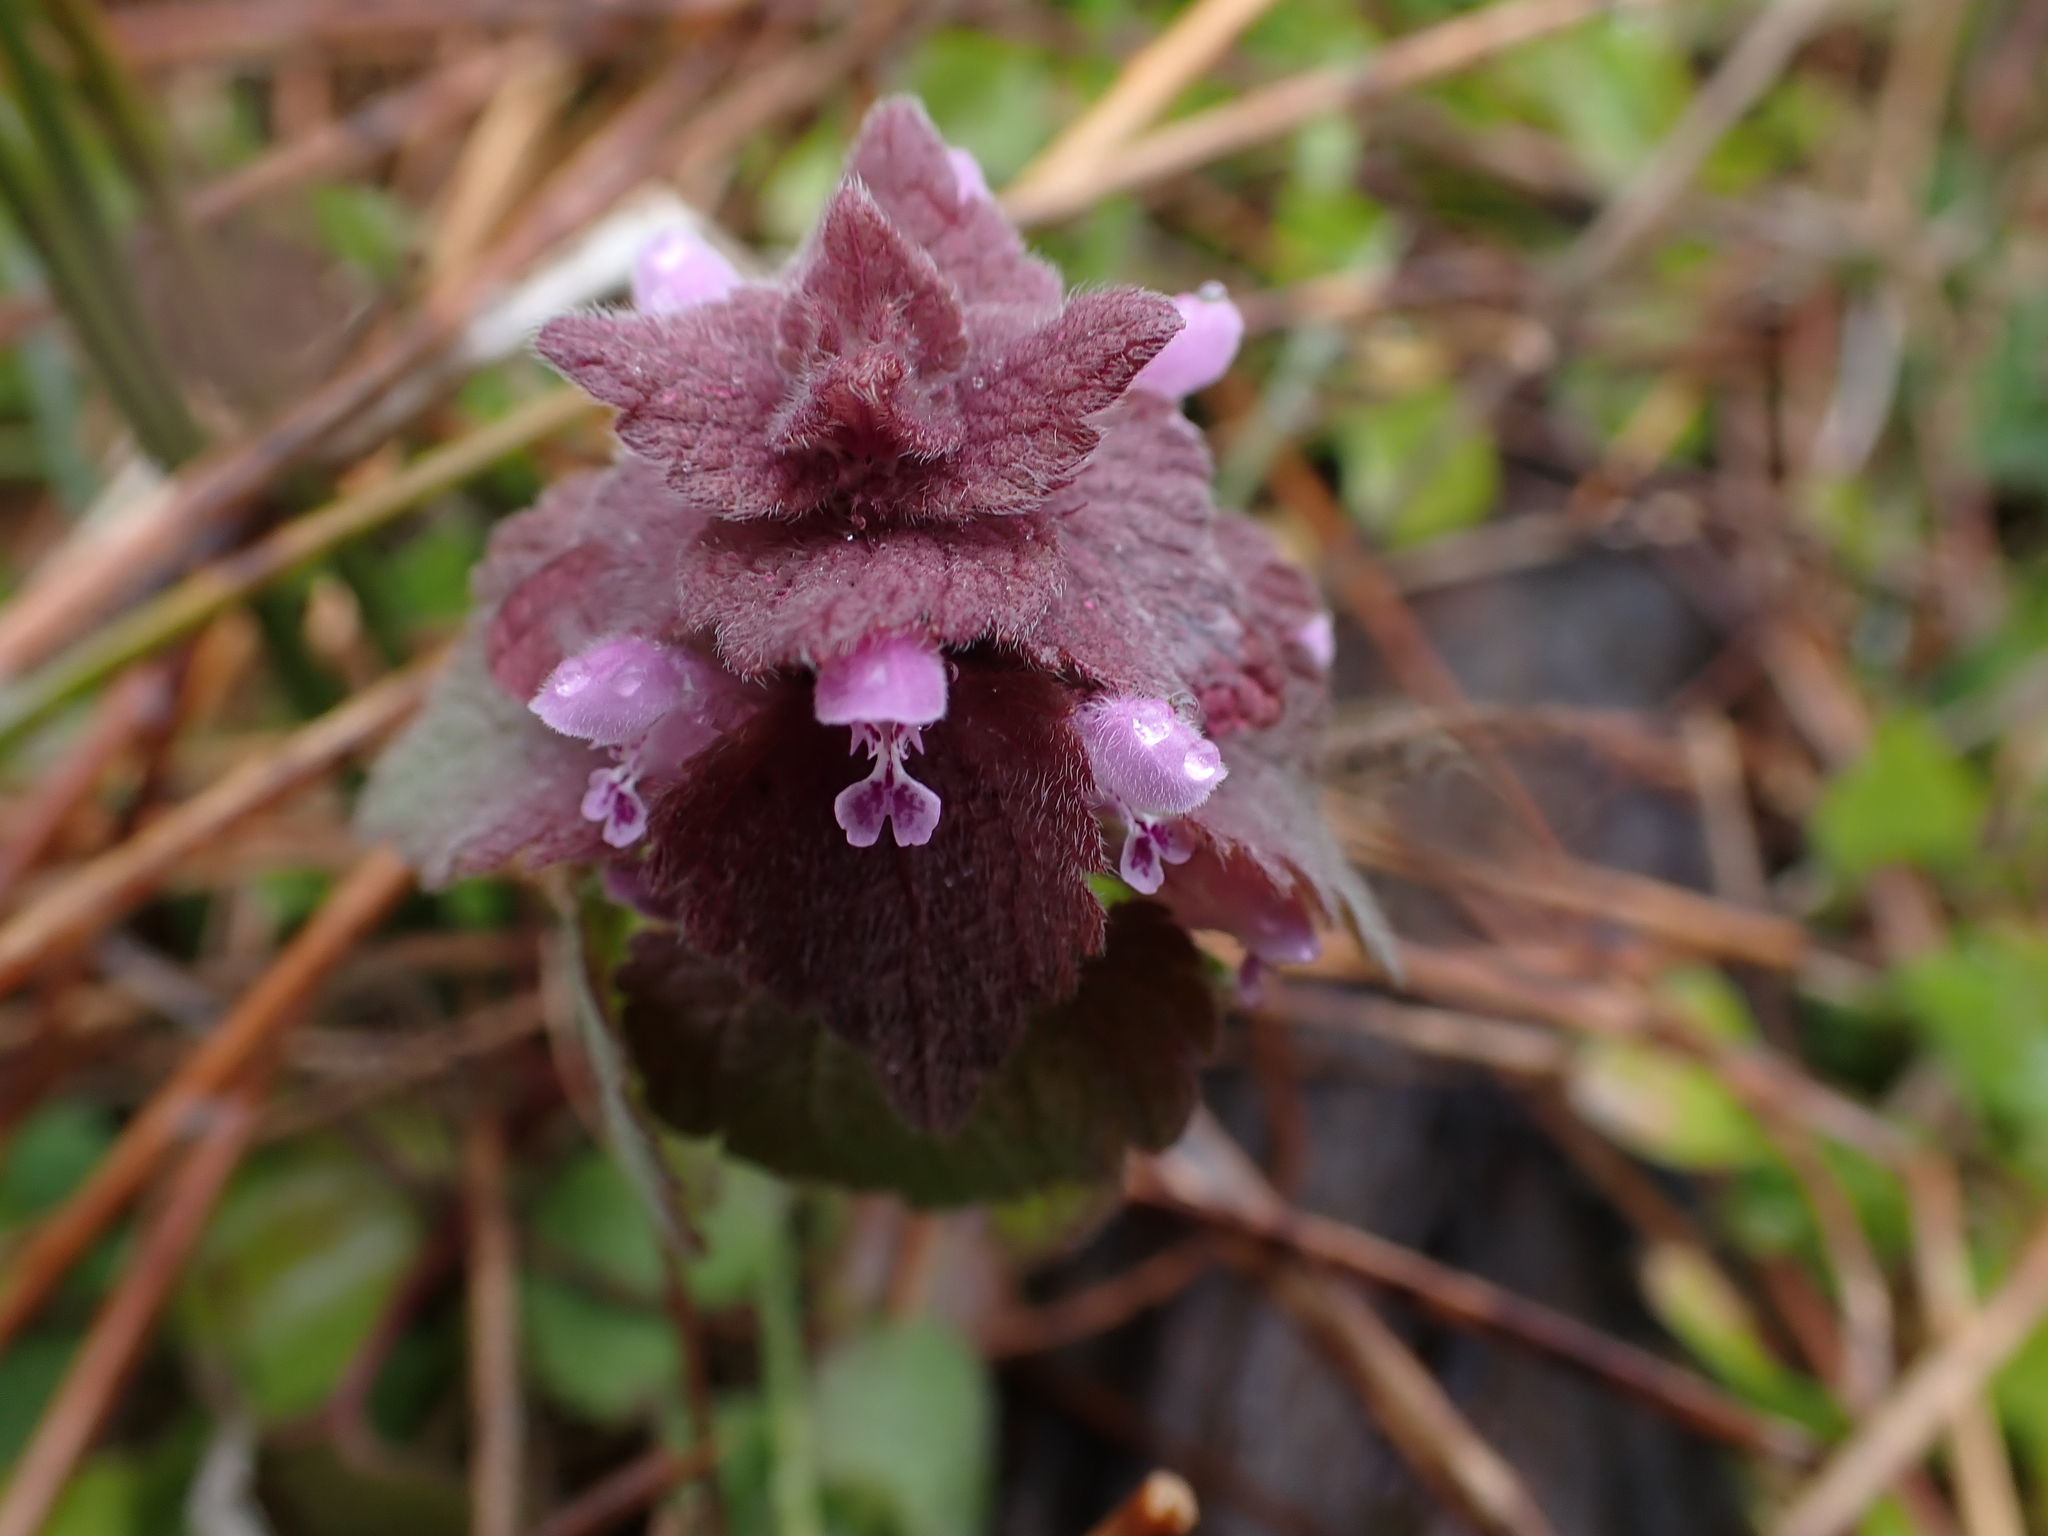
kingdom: Plantae
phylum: Tracheophyta
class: Magnoliopsida
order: Lamiales
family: Lamiaceae
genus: Lamium
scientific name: Lamium purpureum
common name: Red dead-nettle
